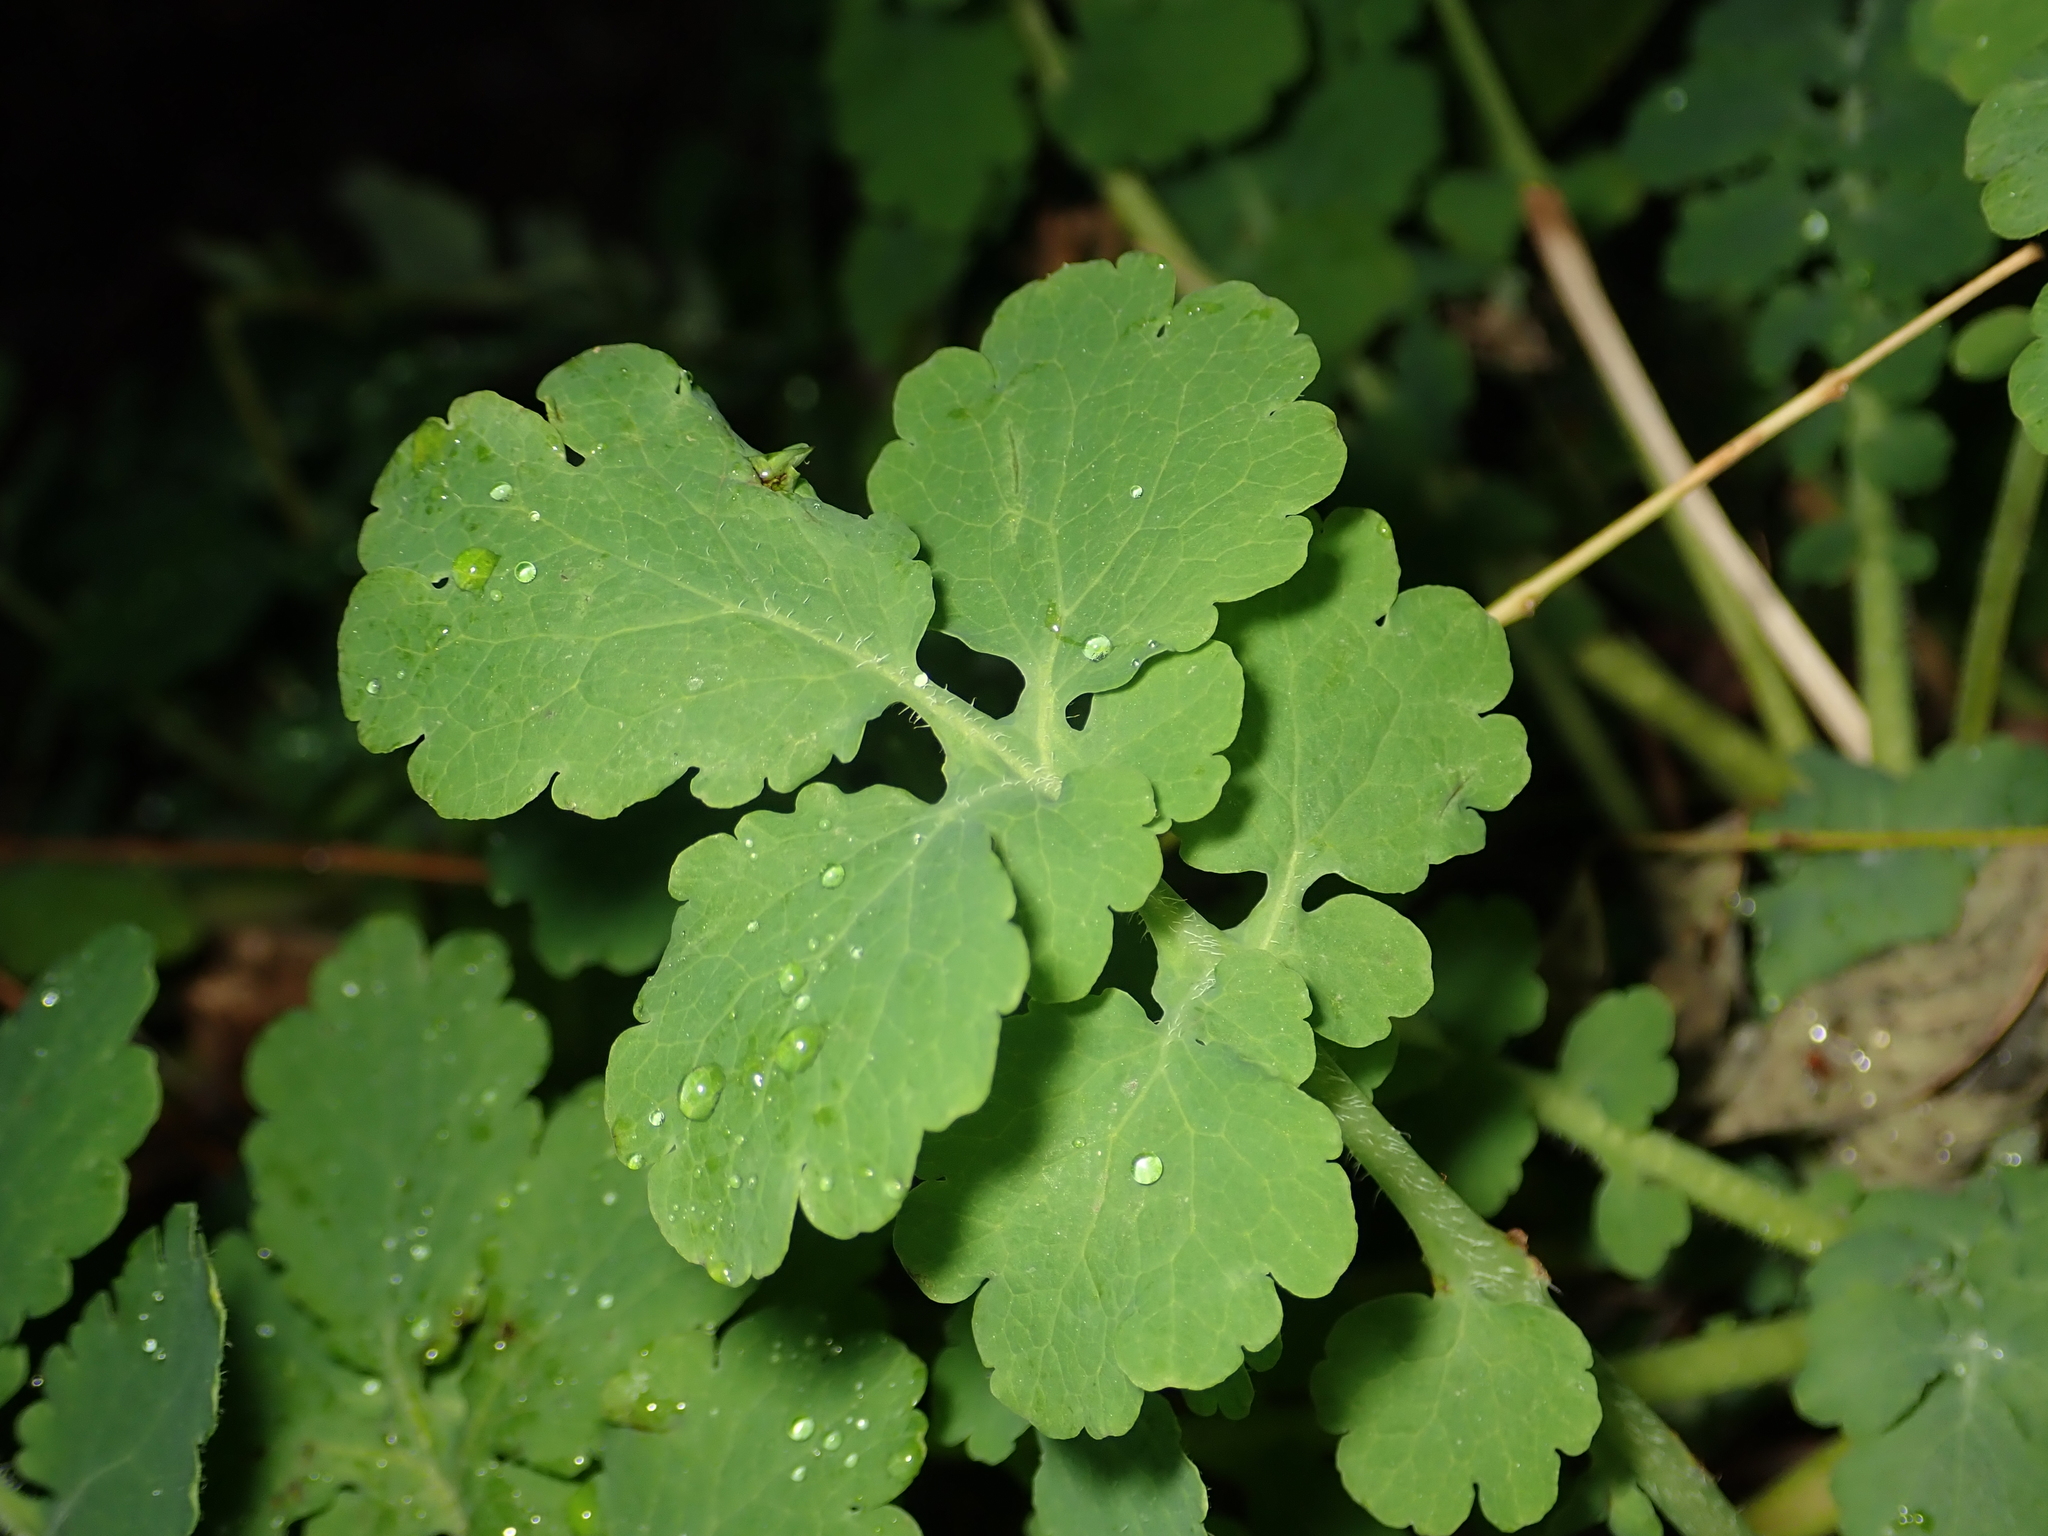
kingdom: Plantae
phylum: Tracheophyta
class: Magnoliopsida
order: Ranunculales
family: Papaveraceae
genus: Chelidonium
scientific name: Chelidonium majus
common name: Greater celandine
